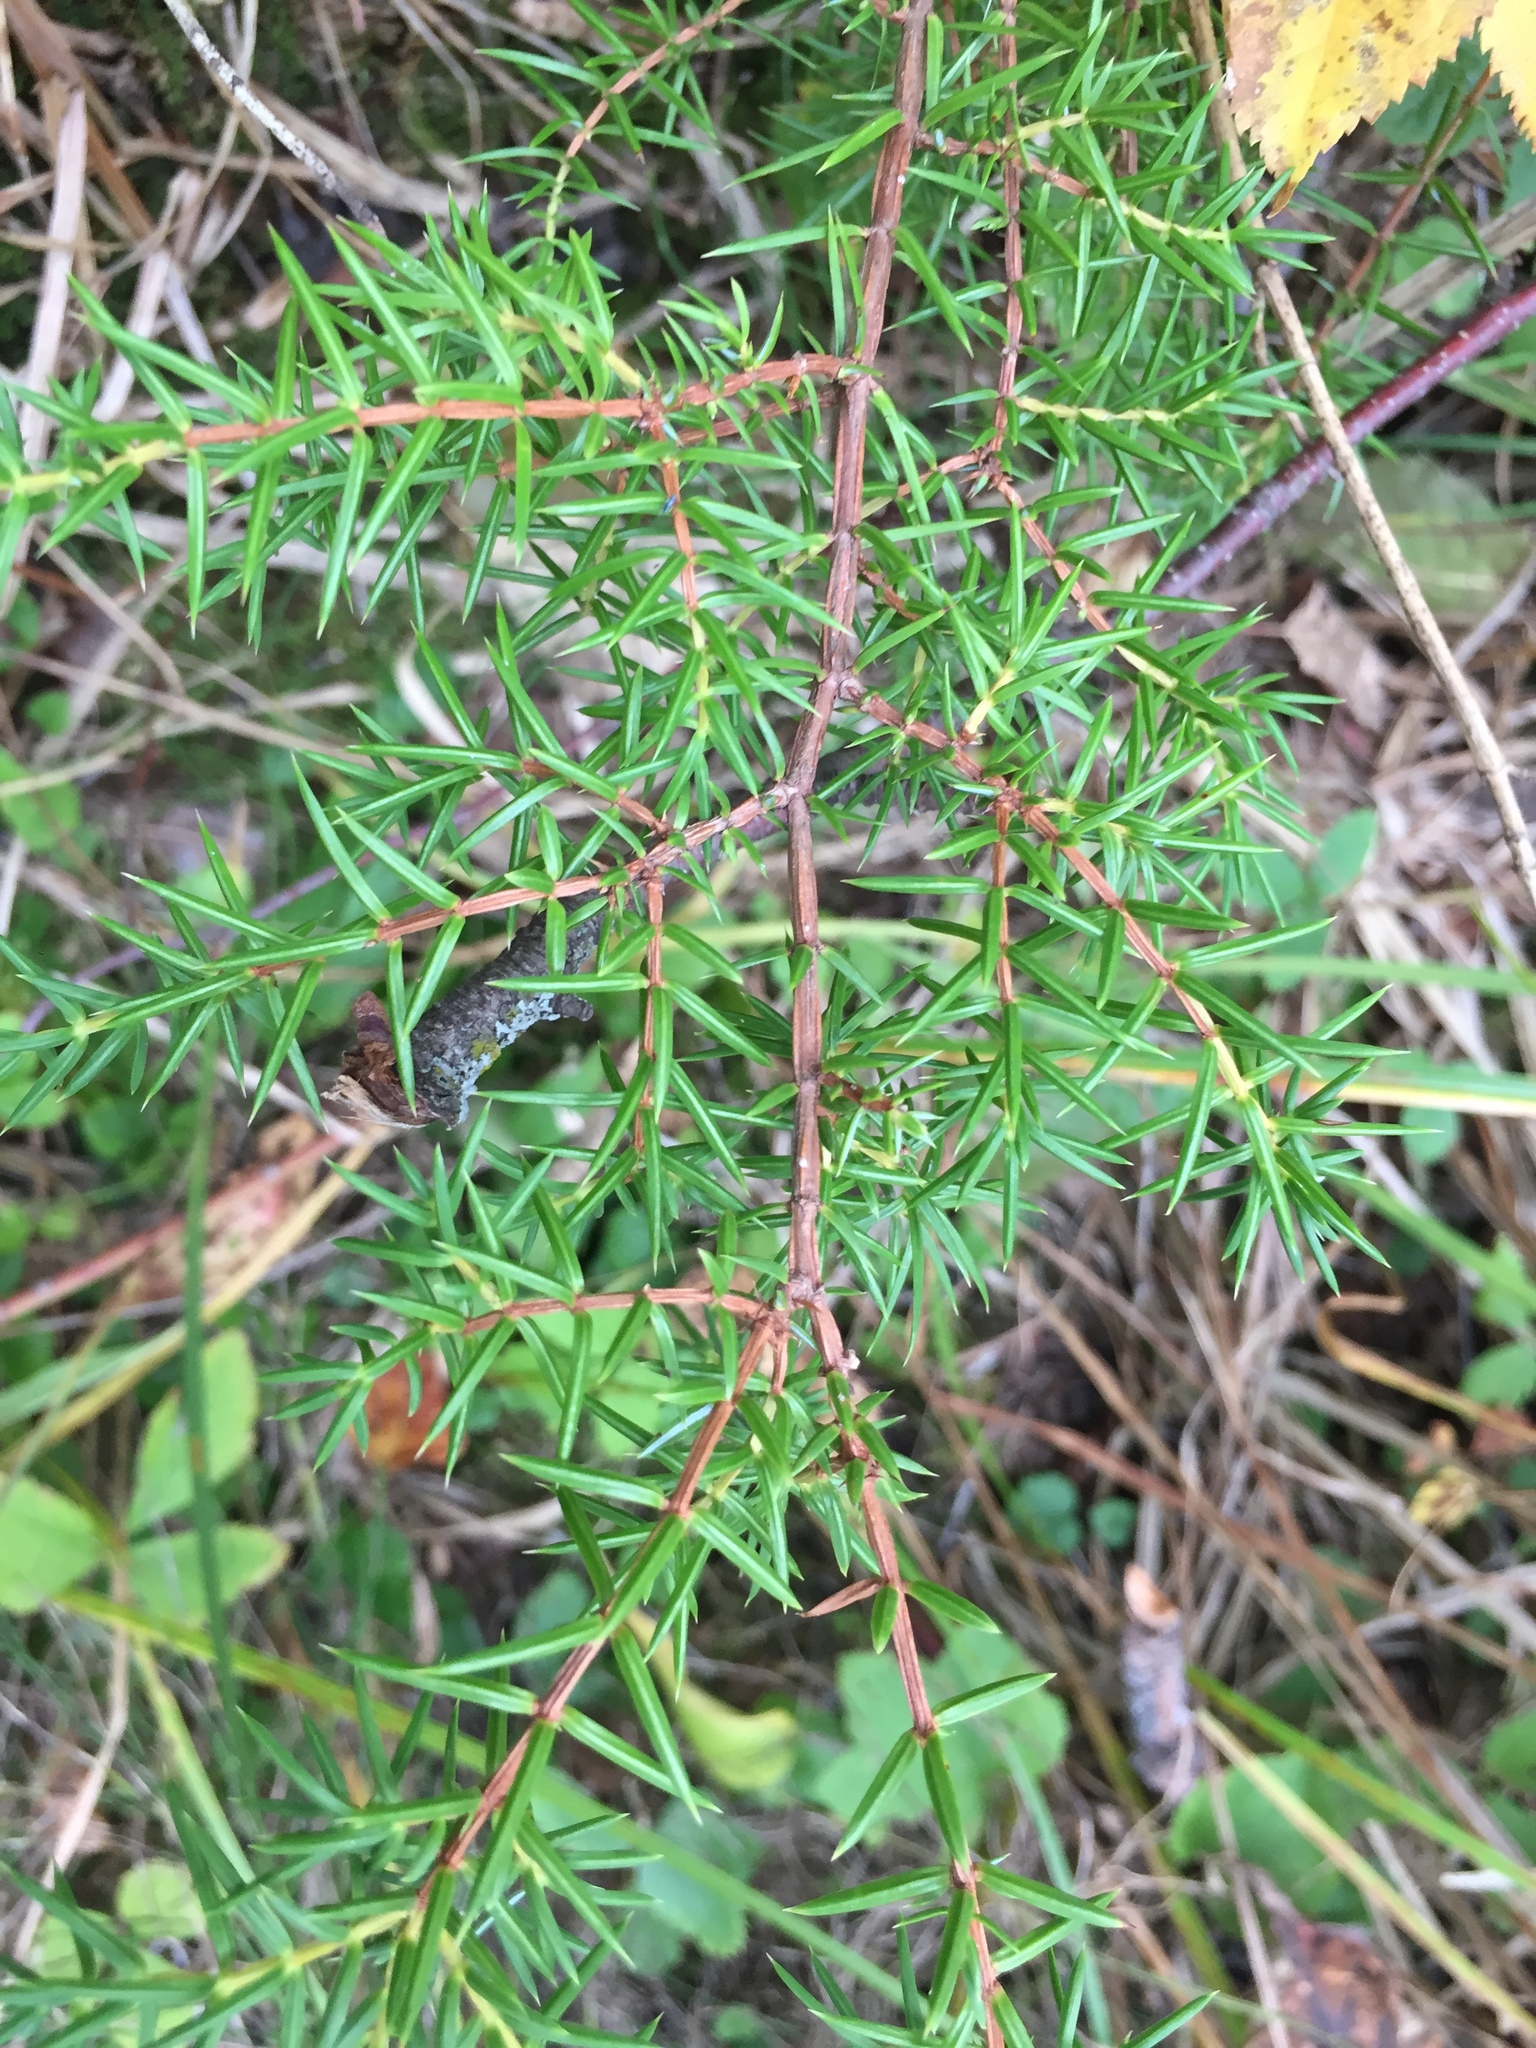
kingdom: Plantae
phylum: Tracheophyta
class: Pinopsida
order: Pinales
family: Cupressaceae
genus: Juniperus
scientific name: Juniperus communis
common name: Common juniper
